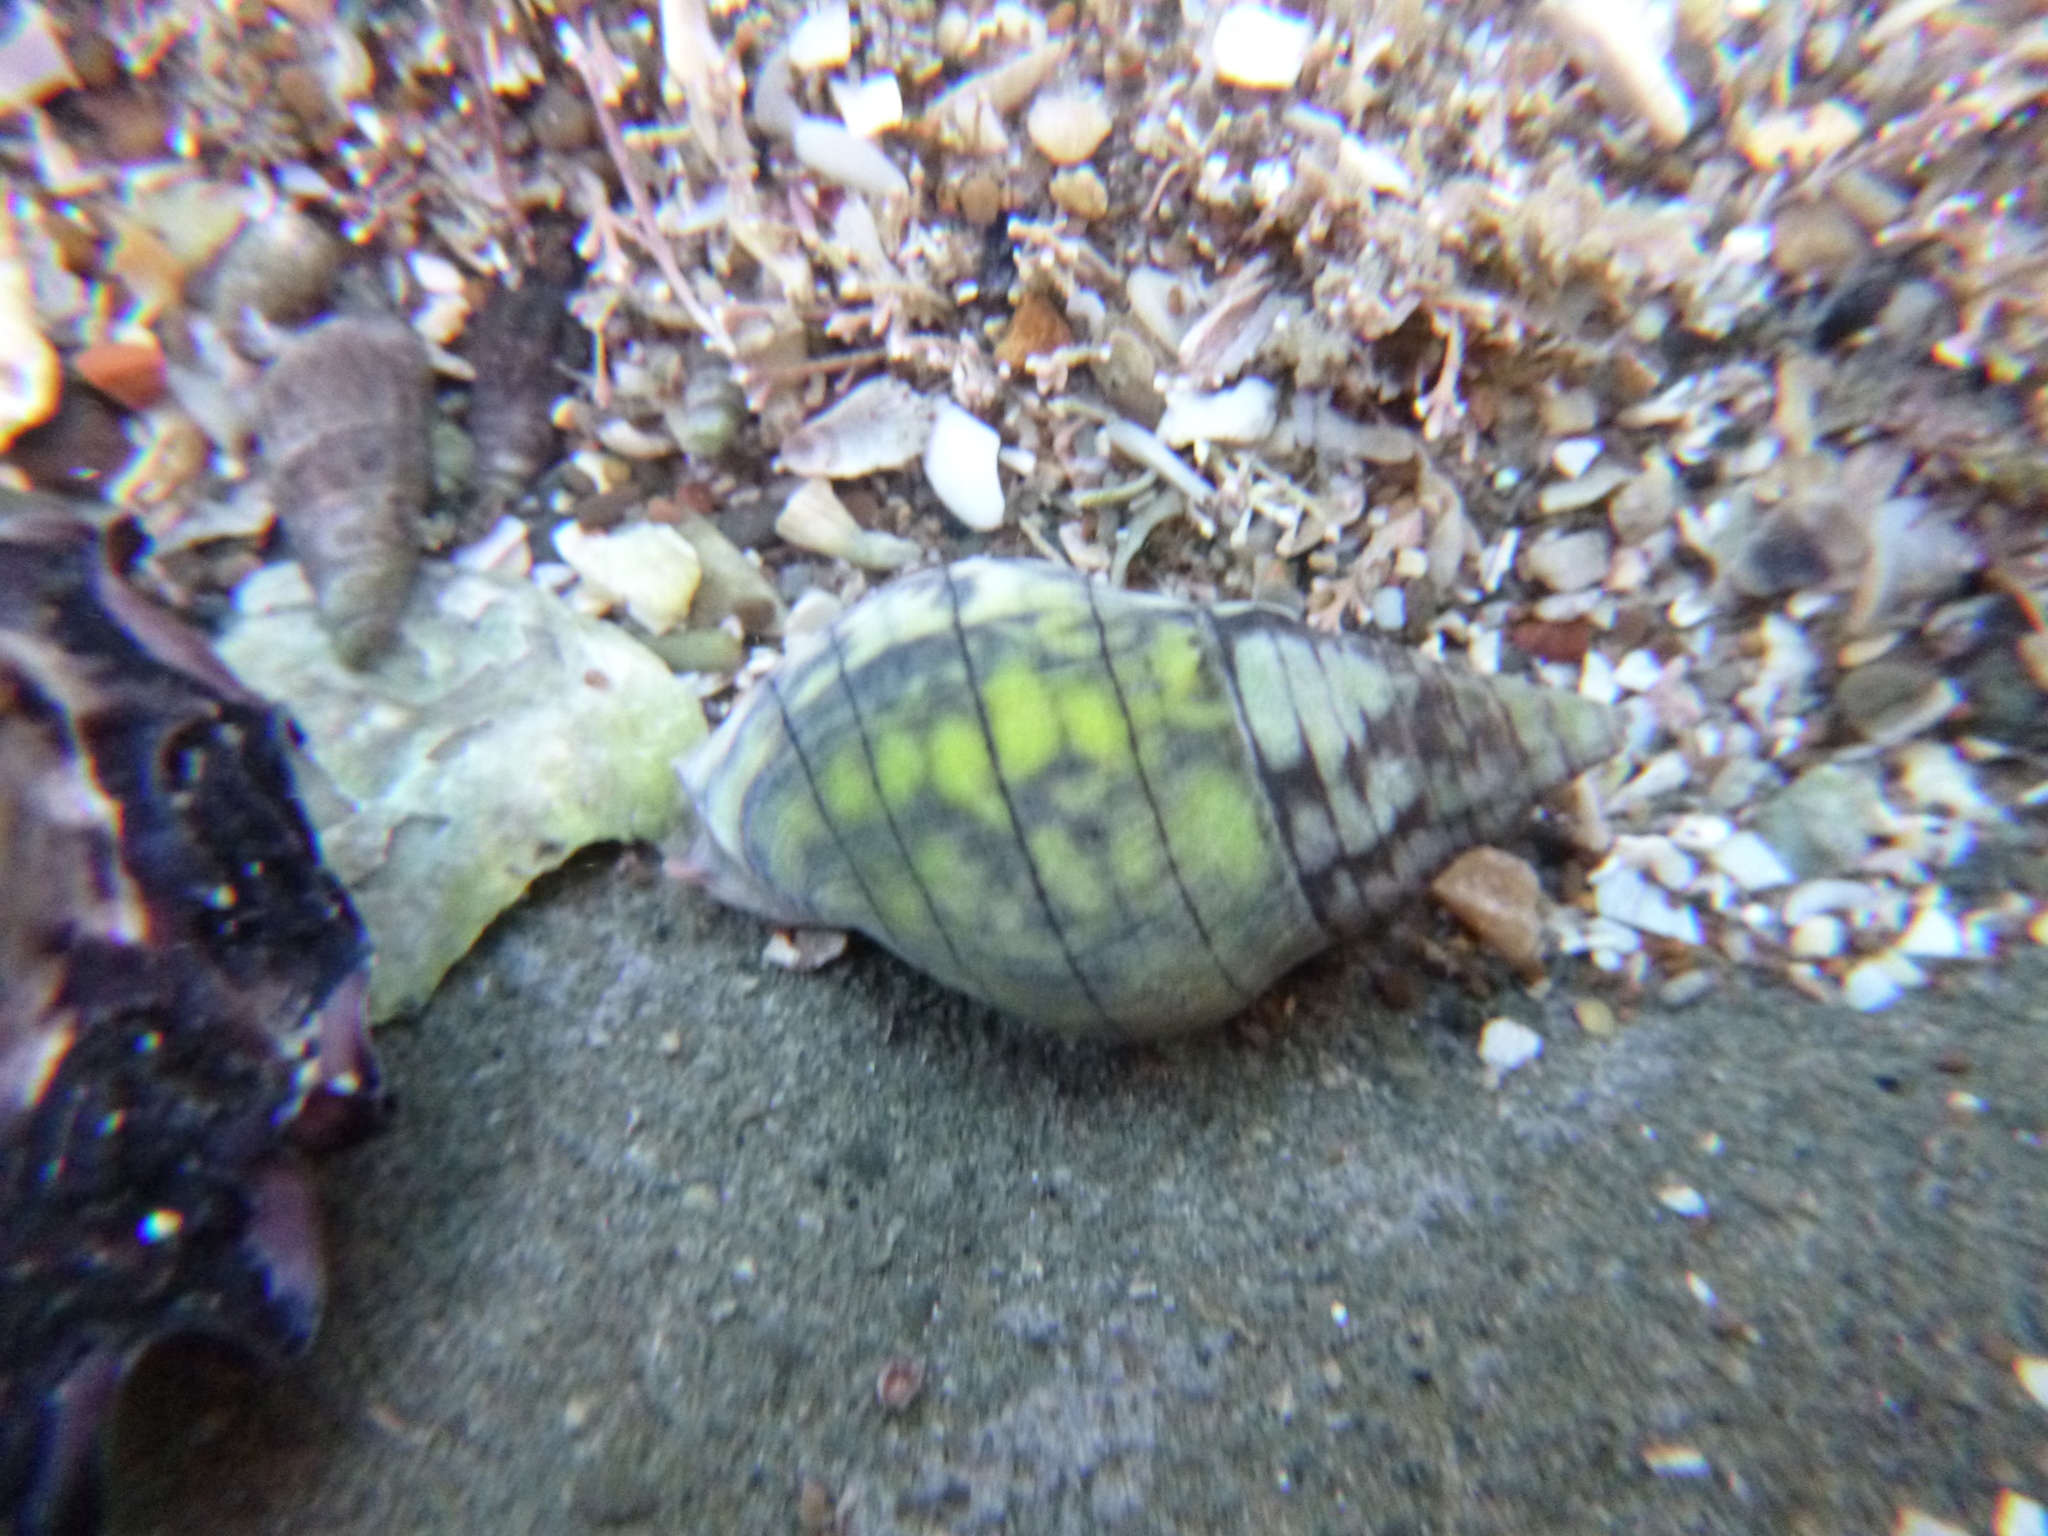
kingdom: Animalia
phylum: Mollusca
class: Gastropoda
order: Neogastropoda
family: Cominellidae
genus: Cominella
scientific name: Cominella virgata
